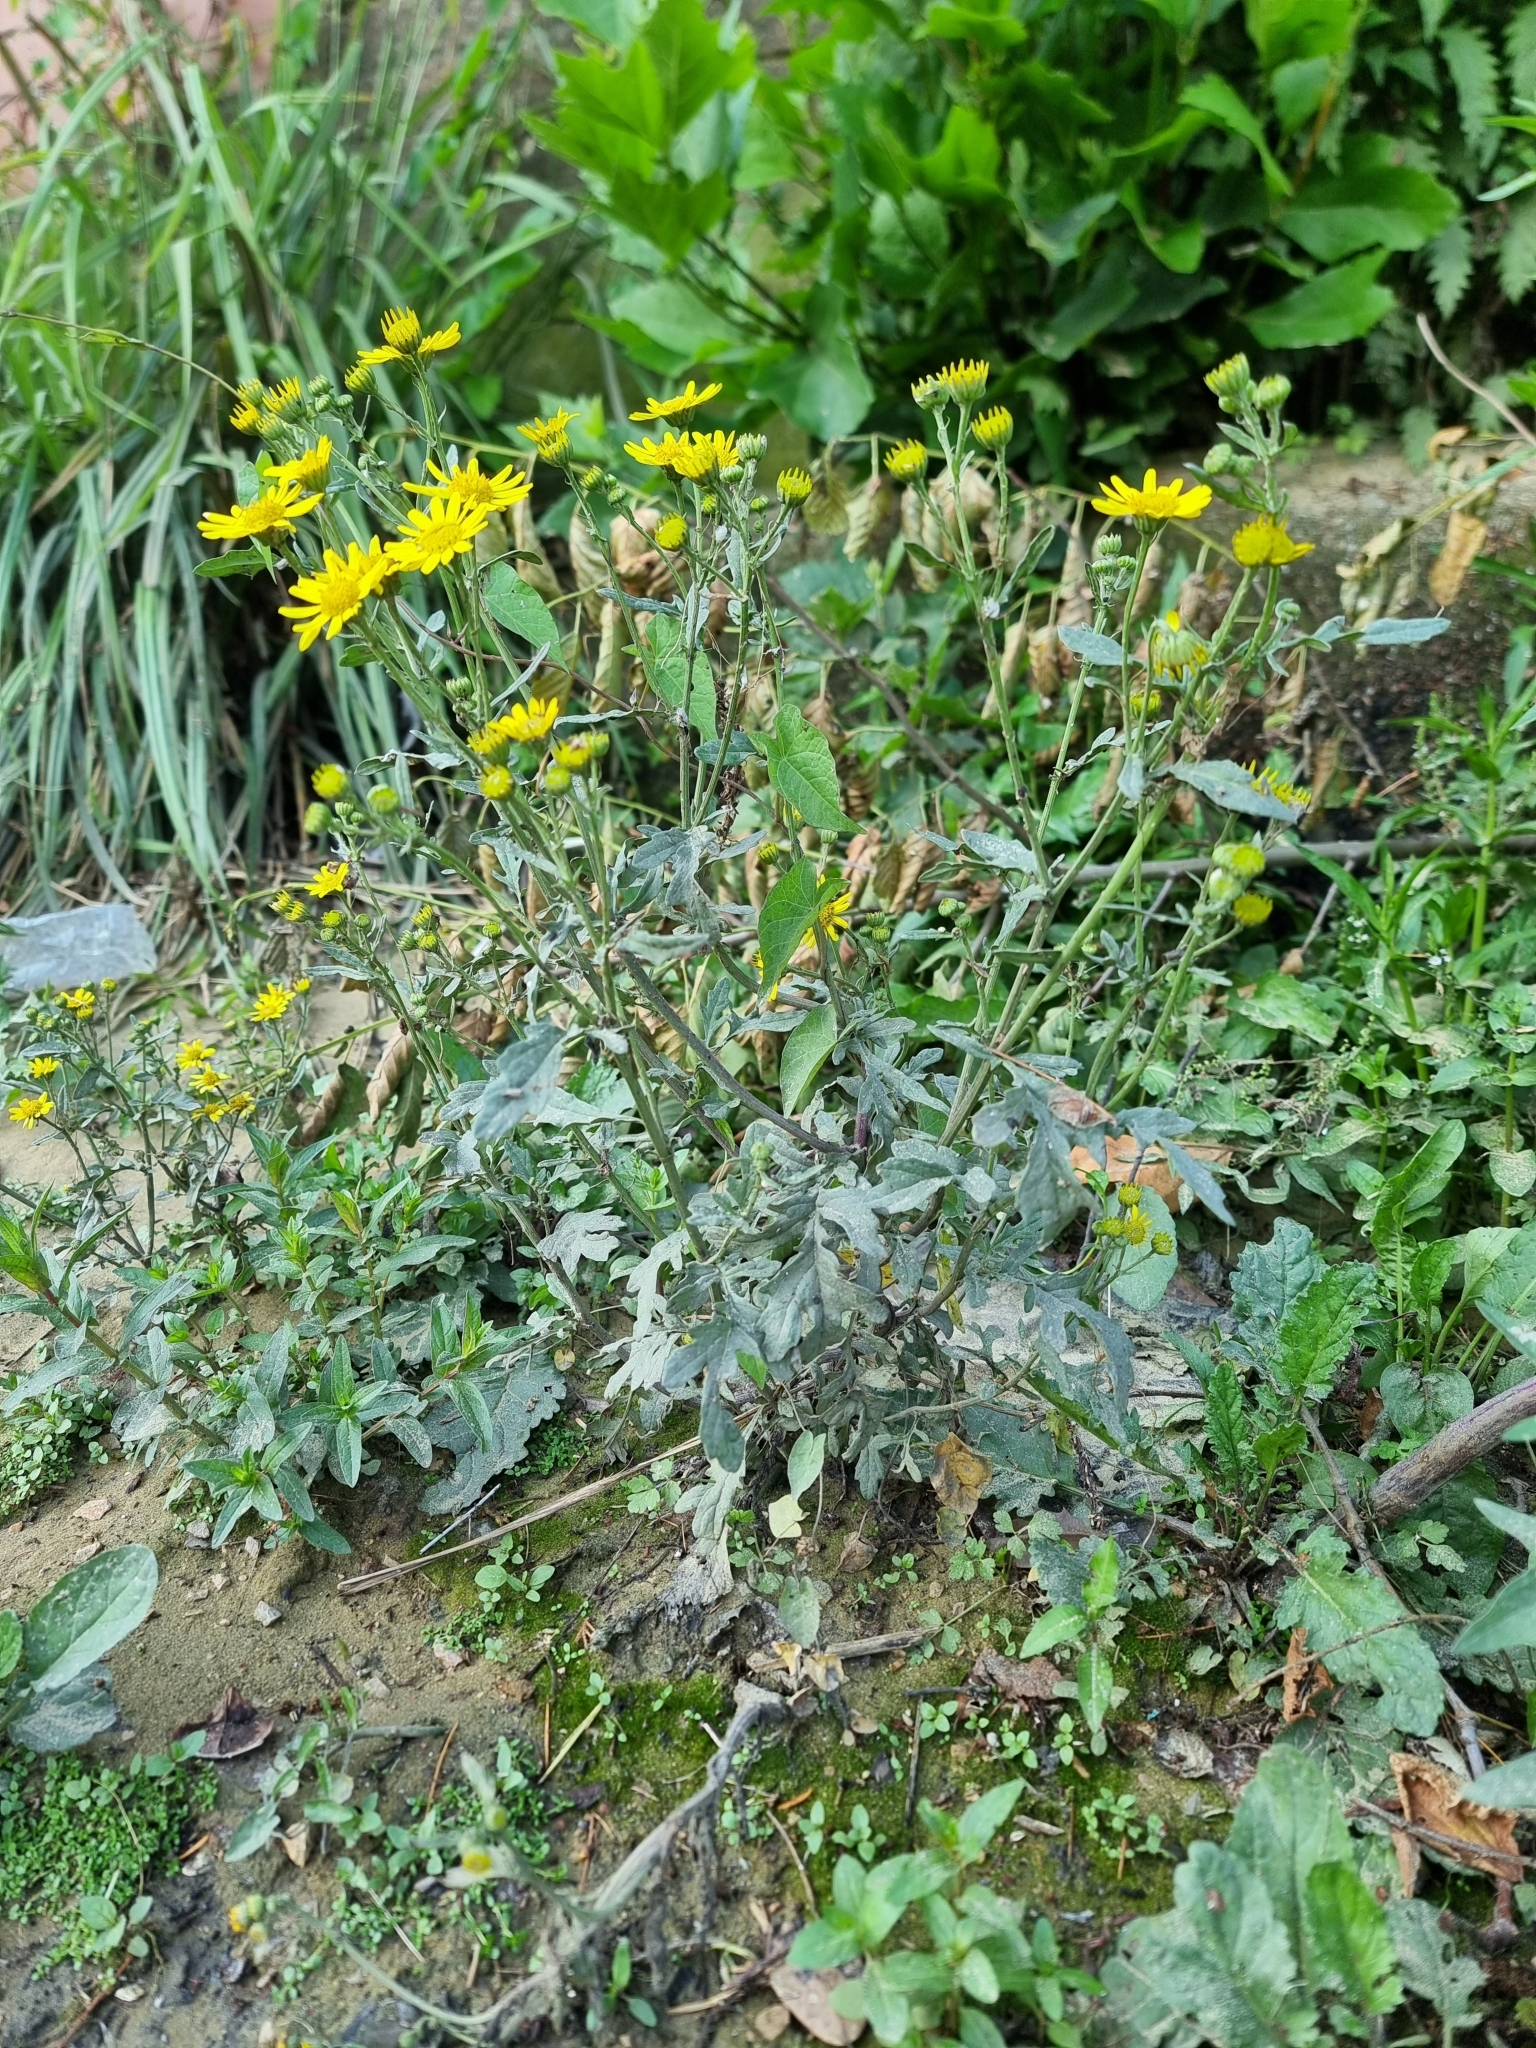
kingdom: Plantae
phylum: Tracheophyta
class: Magnoliopsida
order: Asterales
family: Asteraceae
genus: Jacobaea
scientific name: Jacobaea aquatica
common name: Water ragwort
